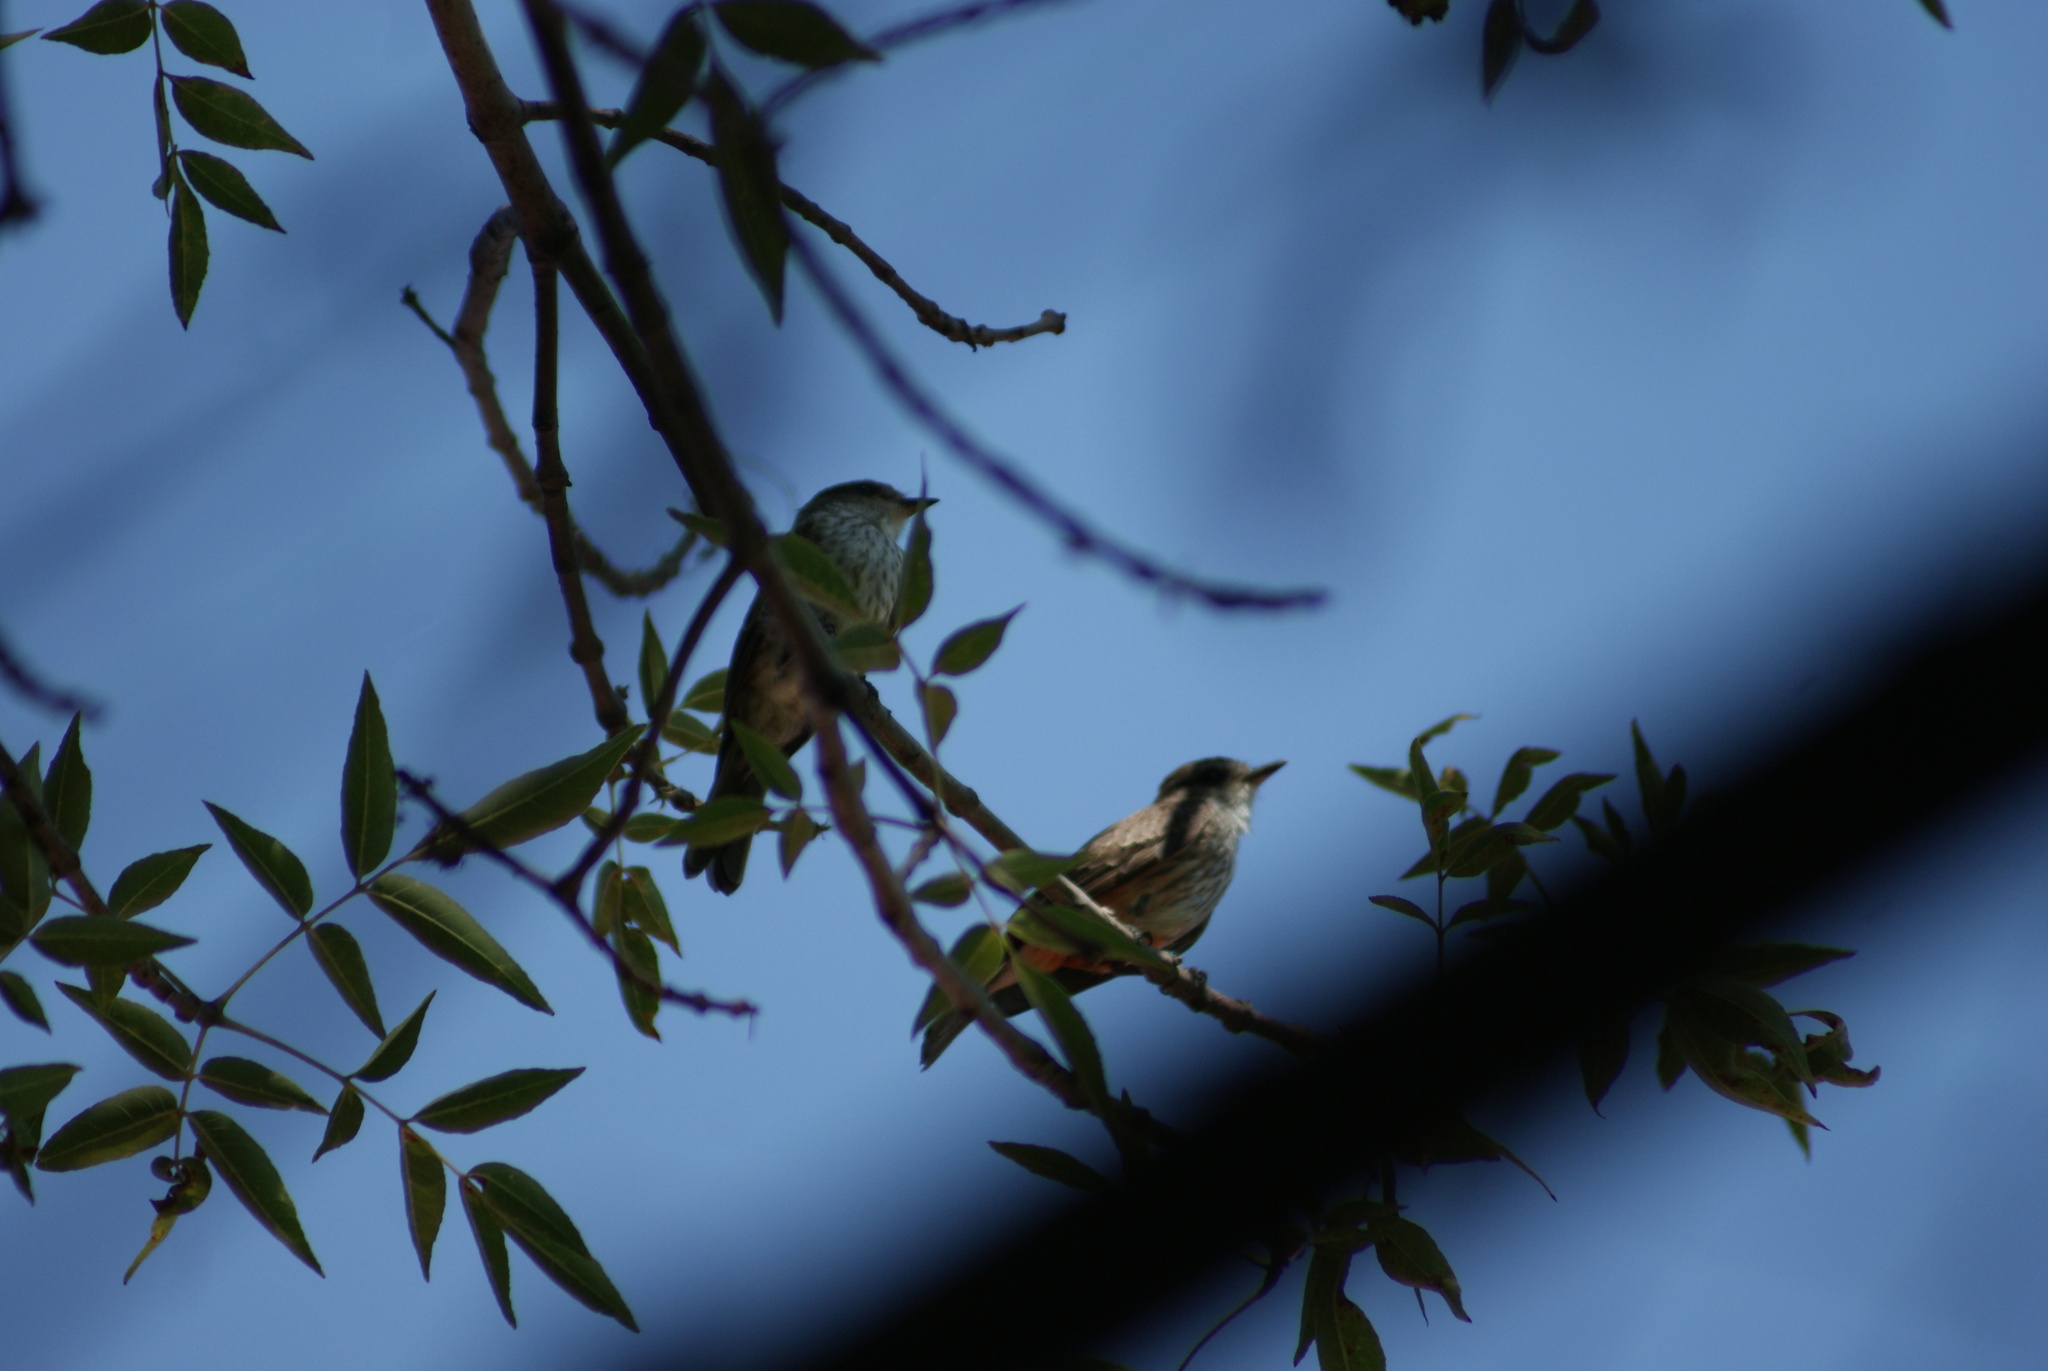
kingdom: Animalia
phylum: Chordata
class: Aves
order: Passeriformes
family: Tyrannidae
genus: Pyrocephalus
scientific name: Pyrocephalus rubinus
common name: Vermilion flycatcher
